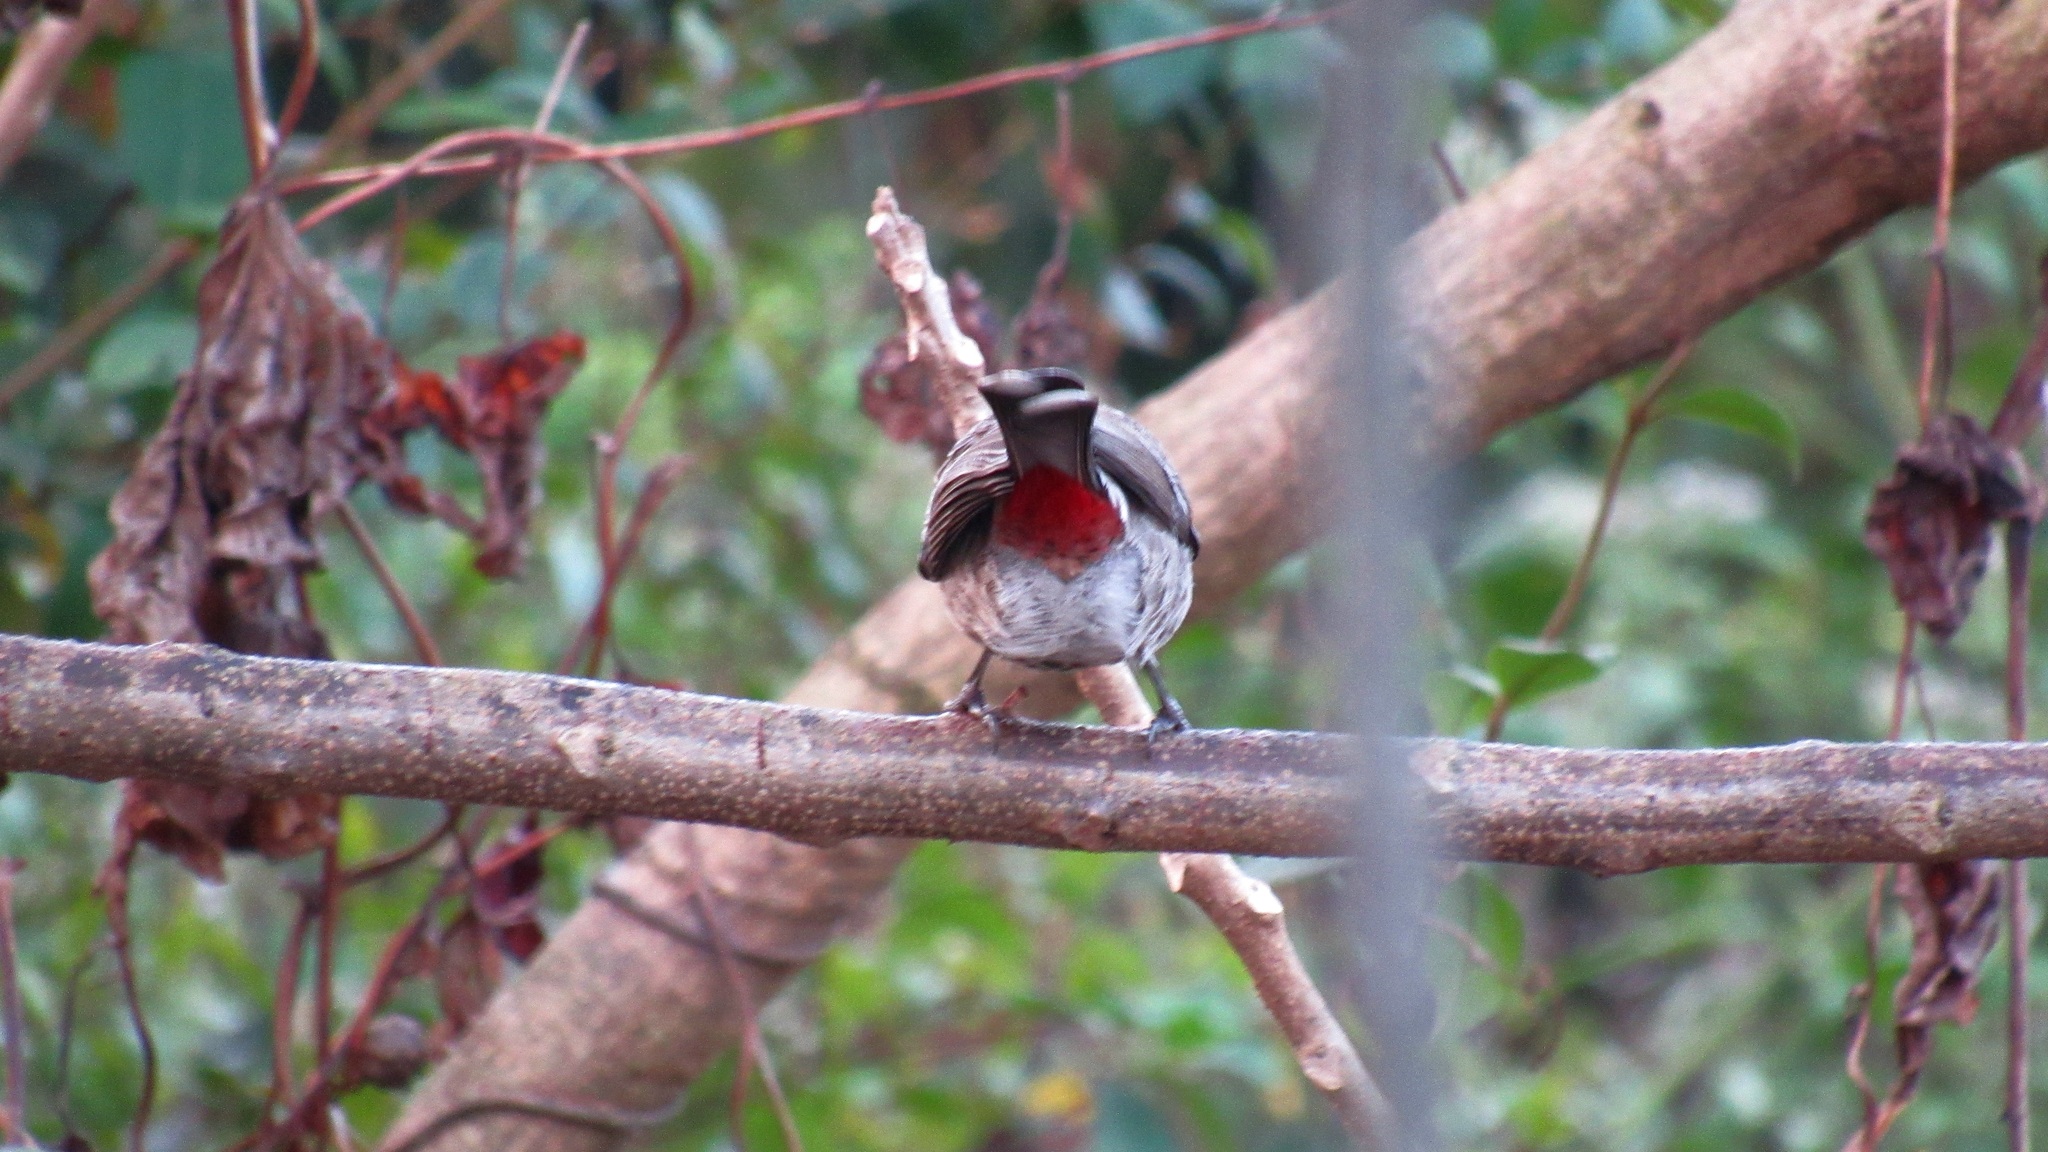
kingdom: Animalia
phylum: Chordata
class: Aves
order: Passeriformes
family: Pycnonotidae
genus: Pycnonotus
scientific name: Pycnonotus cafer
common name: Red-vented bulbul
